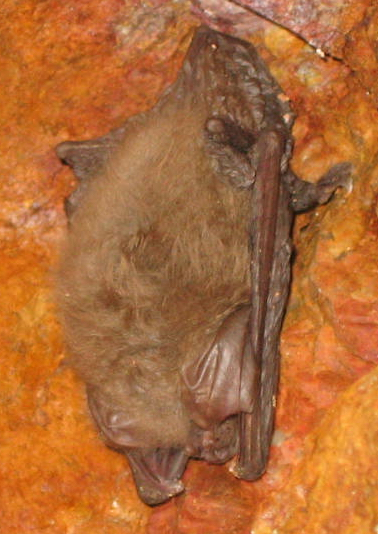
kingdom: Animalia
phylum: Chordata
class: Mammalia
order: Chiroptera
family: Vespertilionidae
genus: Corynorhinus
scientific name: Corynorhinus townsendii
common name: Townsend's big-eared bat
